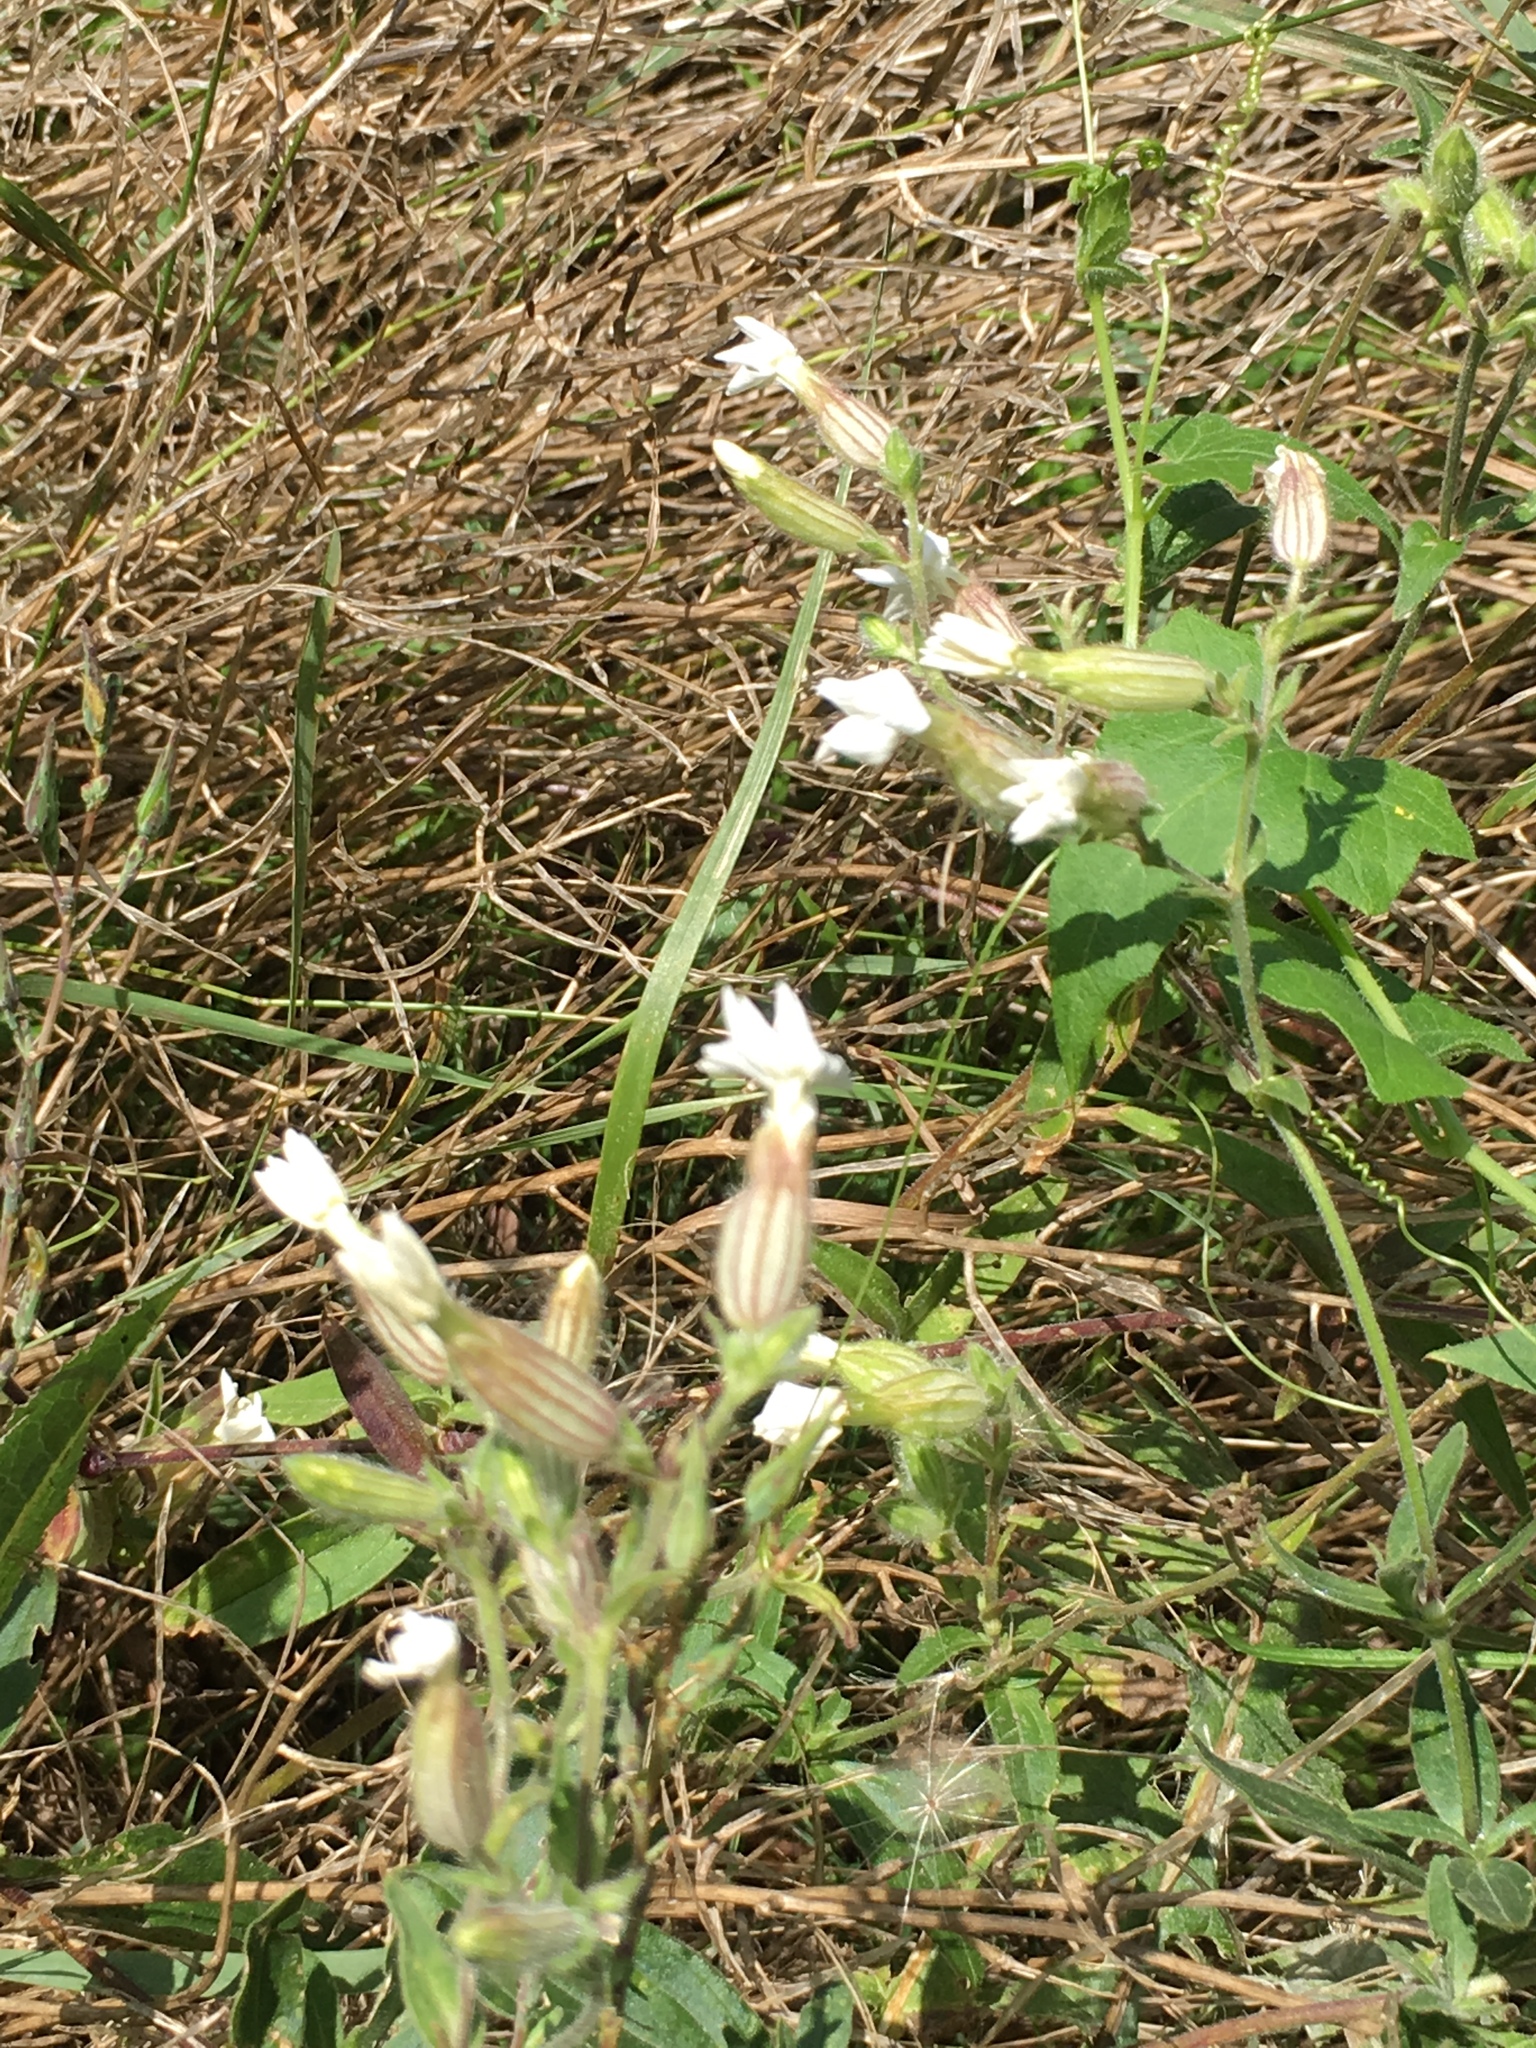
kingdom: Plantae
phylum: Tracheophyta
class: Magnoliopsida
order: Caryophyllales
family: Caryophyllaceae
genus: Silene
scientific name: Silene latifolia
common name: White campion
